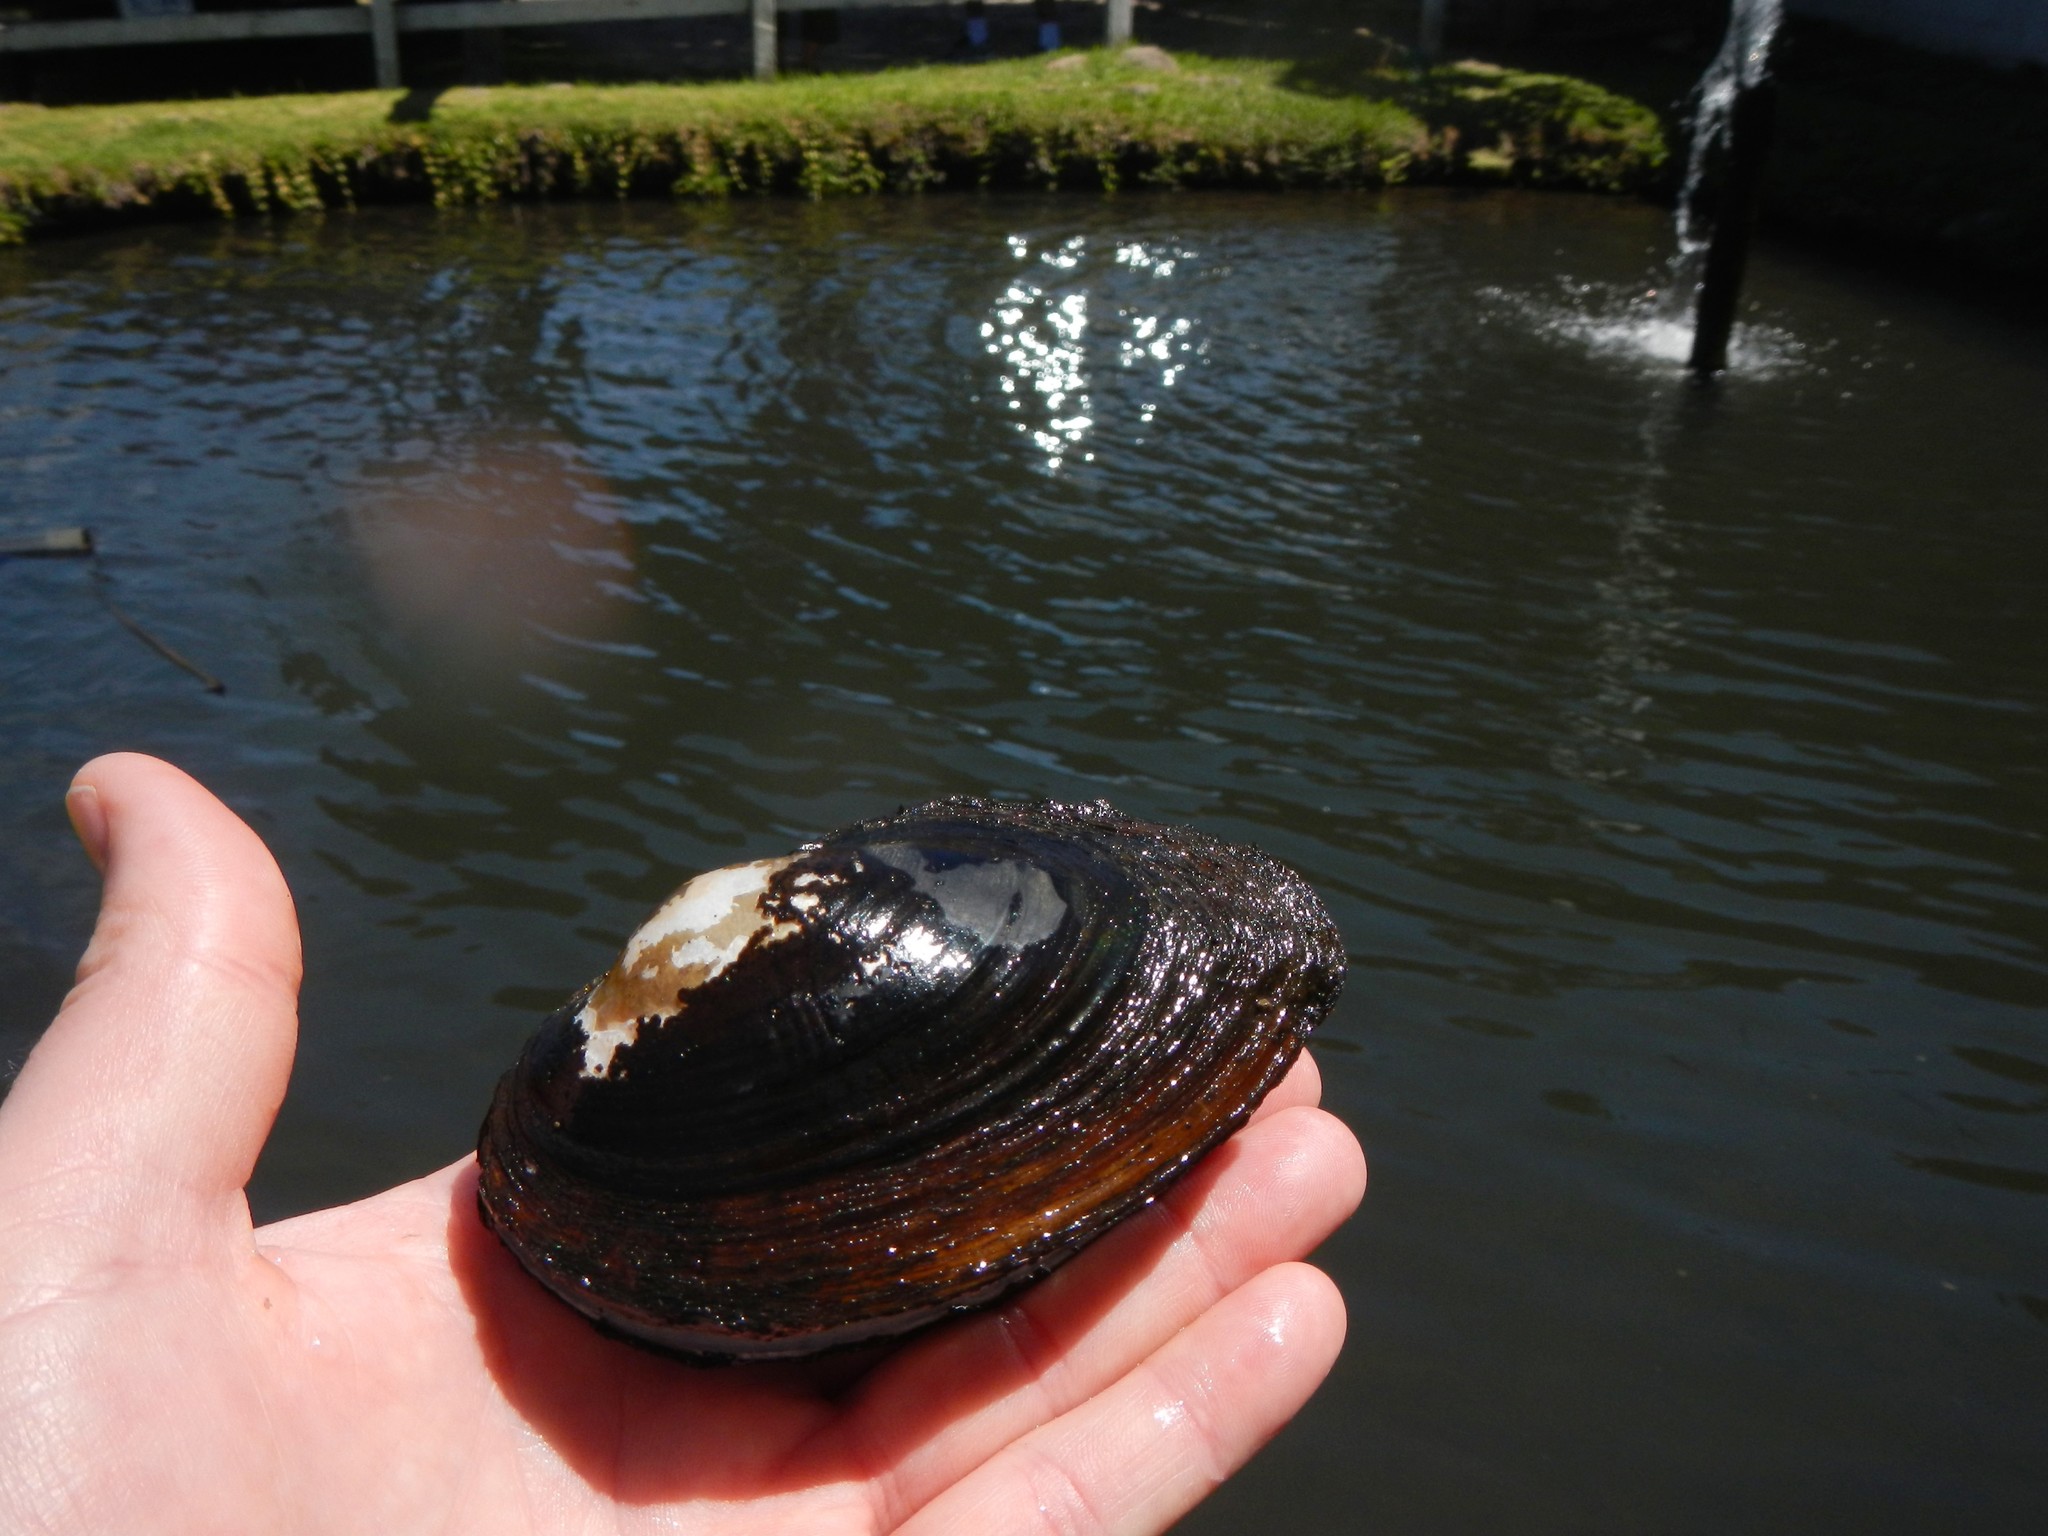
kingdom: Animalia
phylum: Mollusca
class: Bivalvia
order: Unionida
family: Unionidae
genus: Sinanodonta
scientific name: Sinanodonta woodiana
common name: Chinese pond mussel
